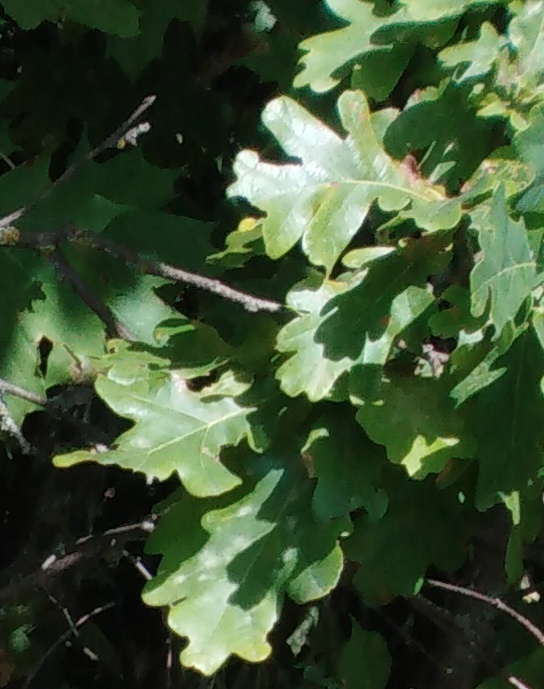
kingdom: Plantae
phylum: Tracheophyta
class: Magnoliopsida
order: Fagales
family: Fagaceae
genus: Quercus
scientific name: Quercus robur
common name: Pedunculate oak
